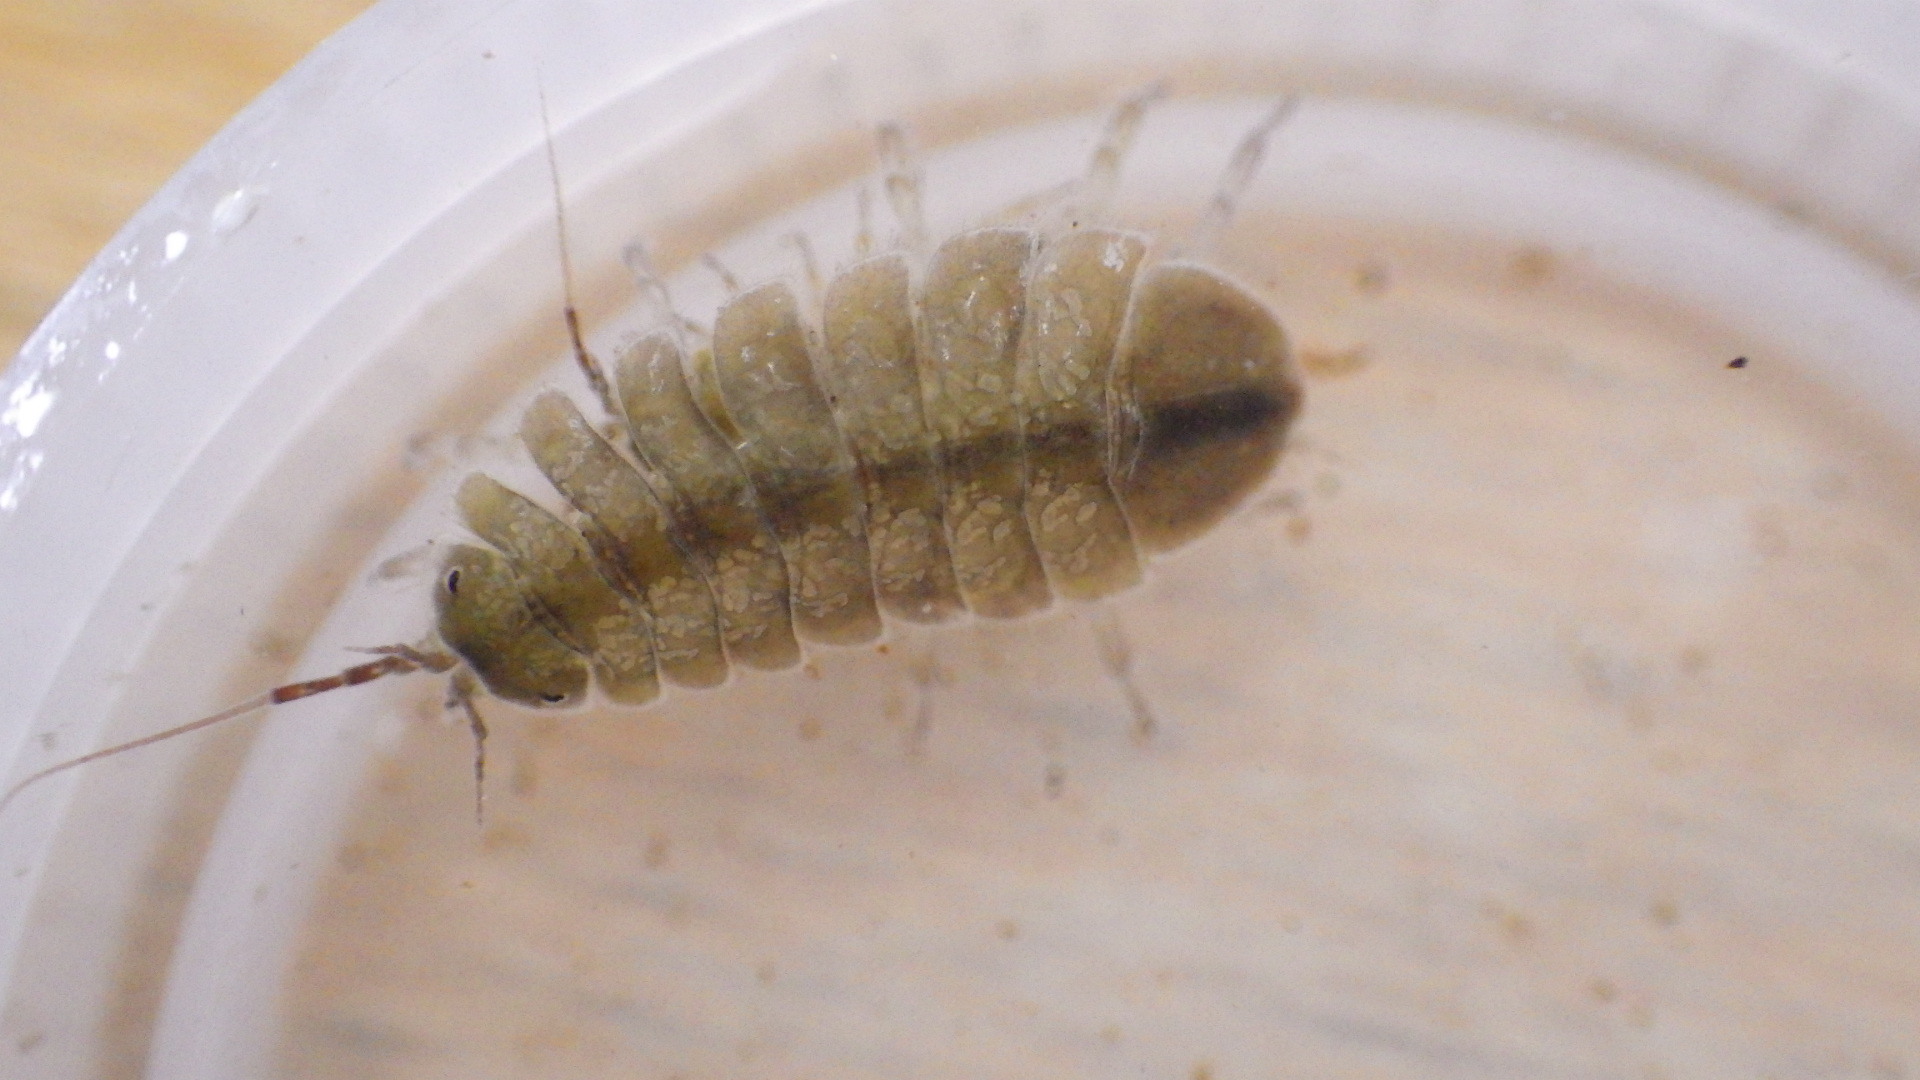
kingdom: Animalia
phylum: Arthropoda
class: Malacostraca
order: Isopoda
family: Asellidae
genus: Lirceus
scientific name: Lirceus brachyurus
